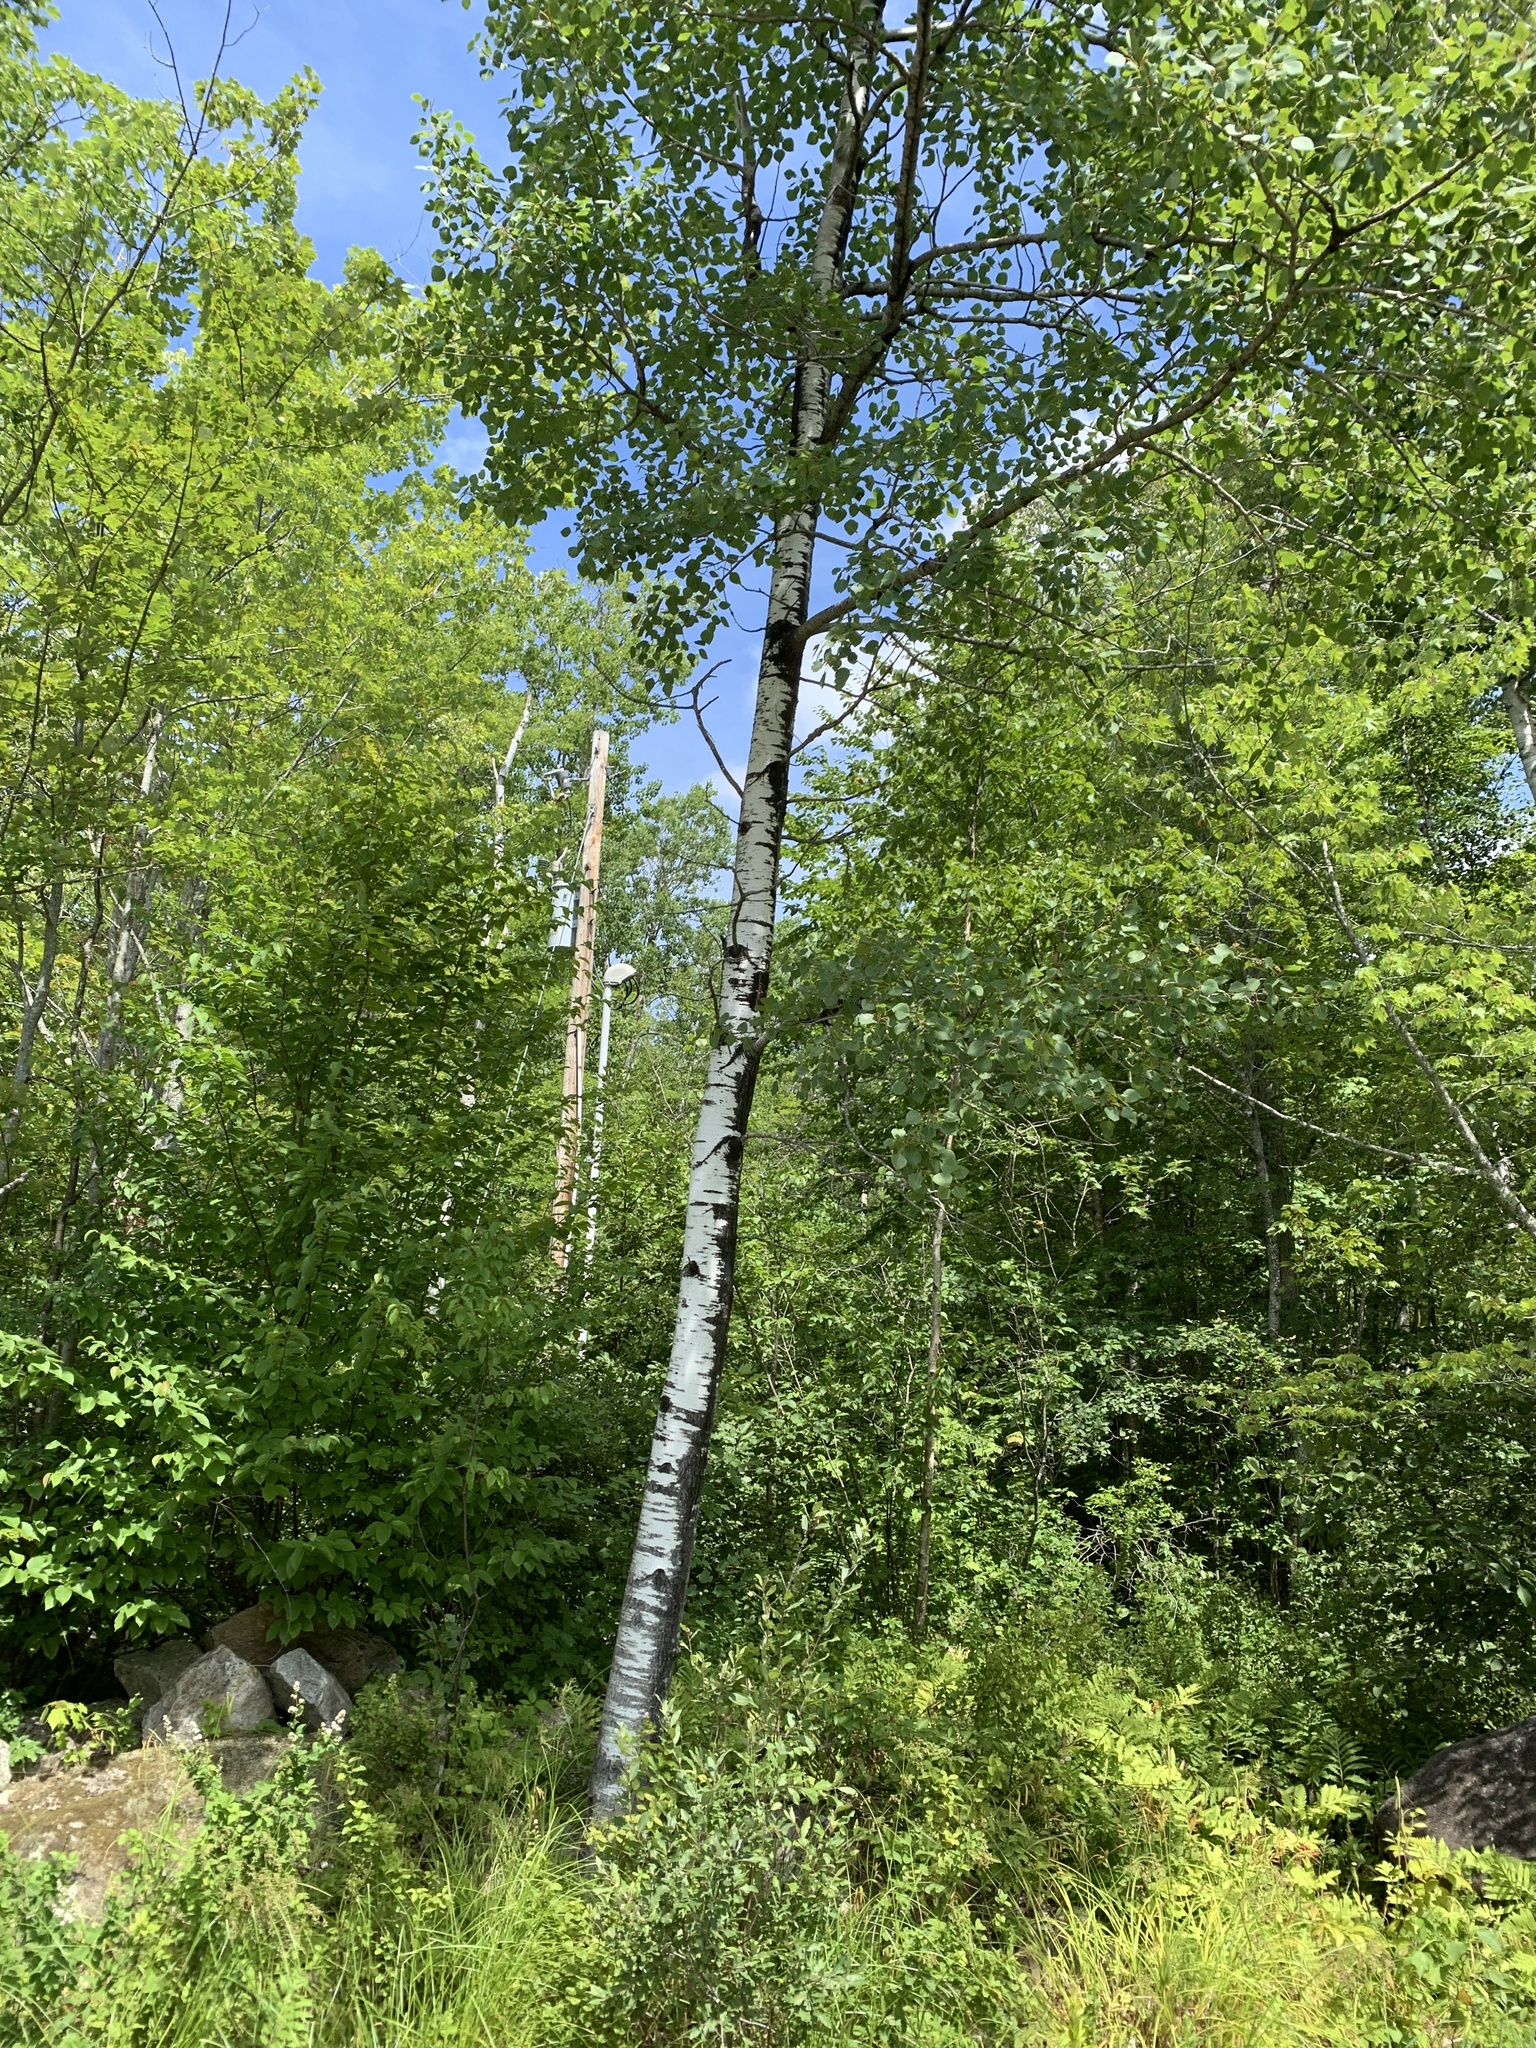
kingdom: Plantae
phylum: Tracheophyta
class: Magnoliopsida
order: Malpighiales
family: Salicaceae
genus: Populus
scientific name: Populus tremuloides
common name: Quaking aspen
